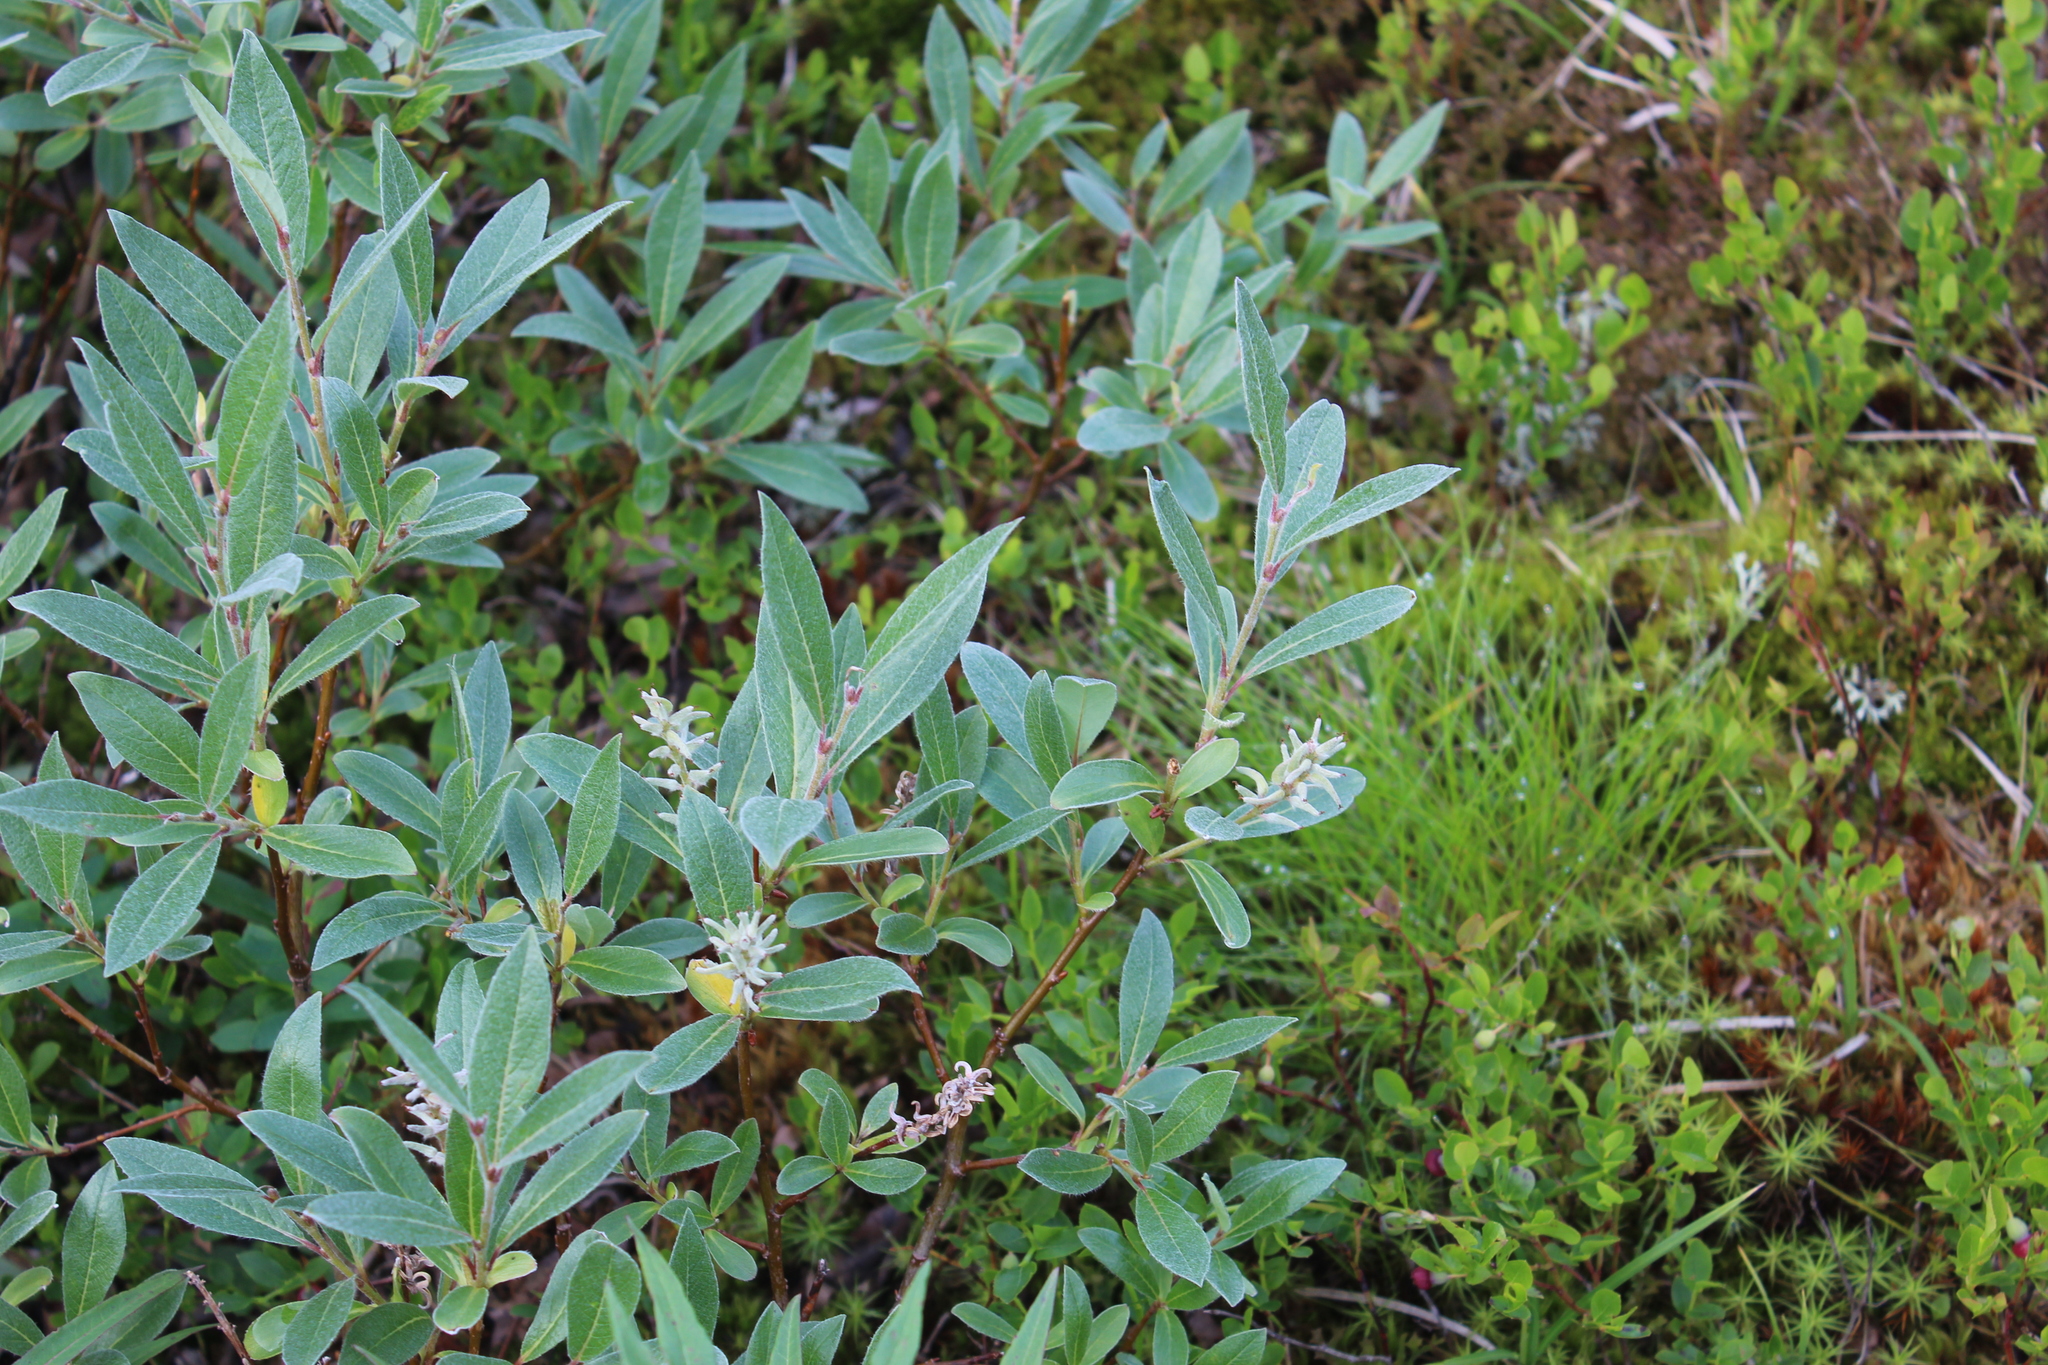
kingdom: Plantae
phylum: Tracheophyta
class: Magnoliopsida
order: Malpighiales
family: Salicaceae
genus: Salix
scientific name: Salix lapponum
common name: Downy willow
